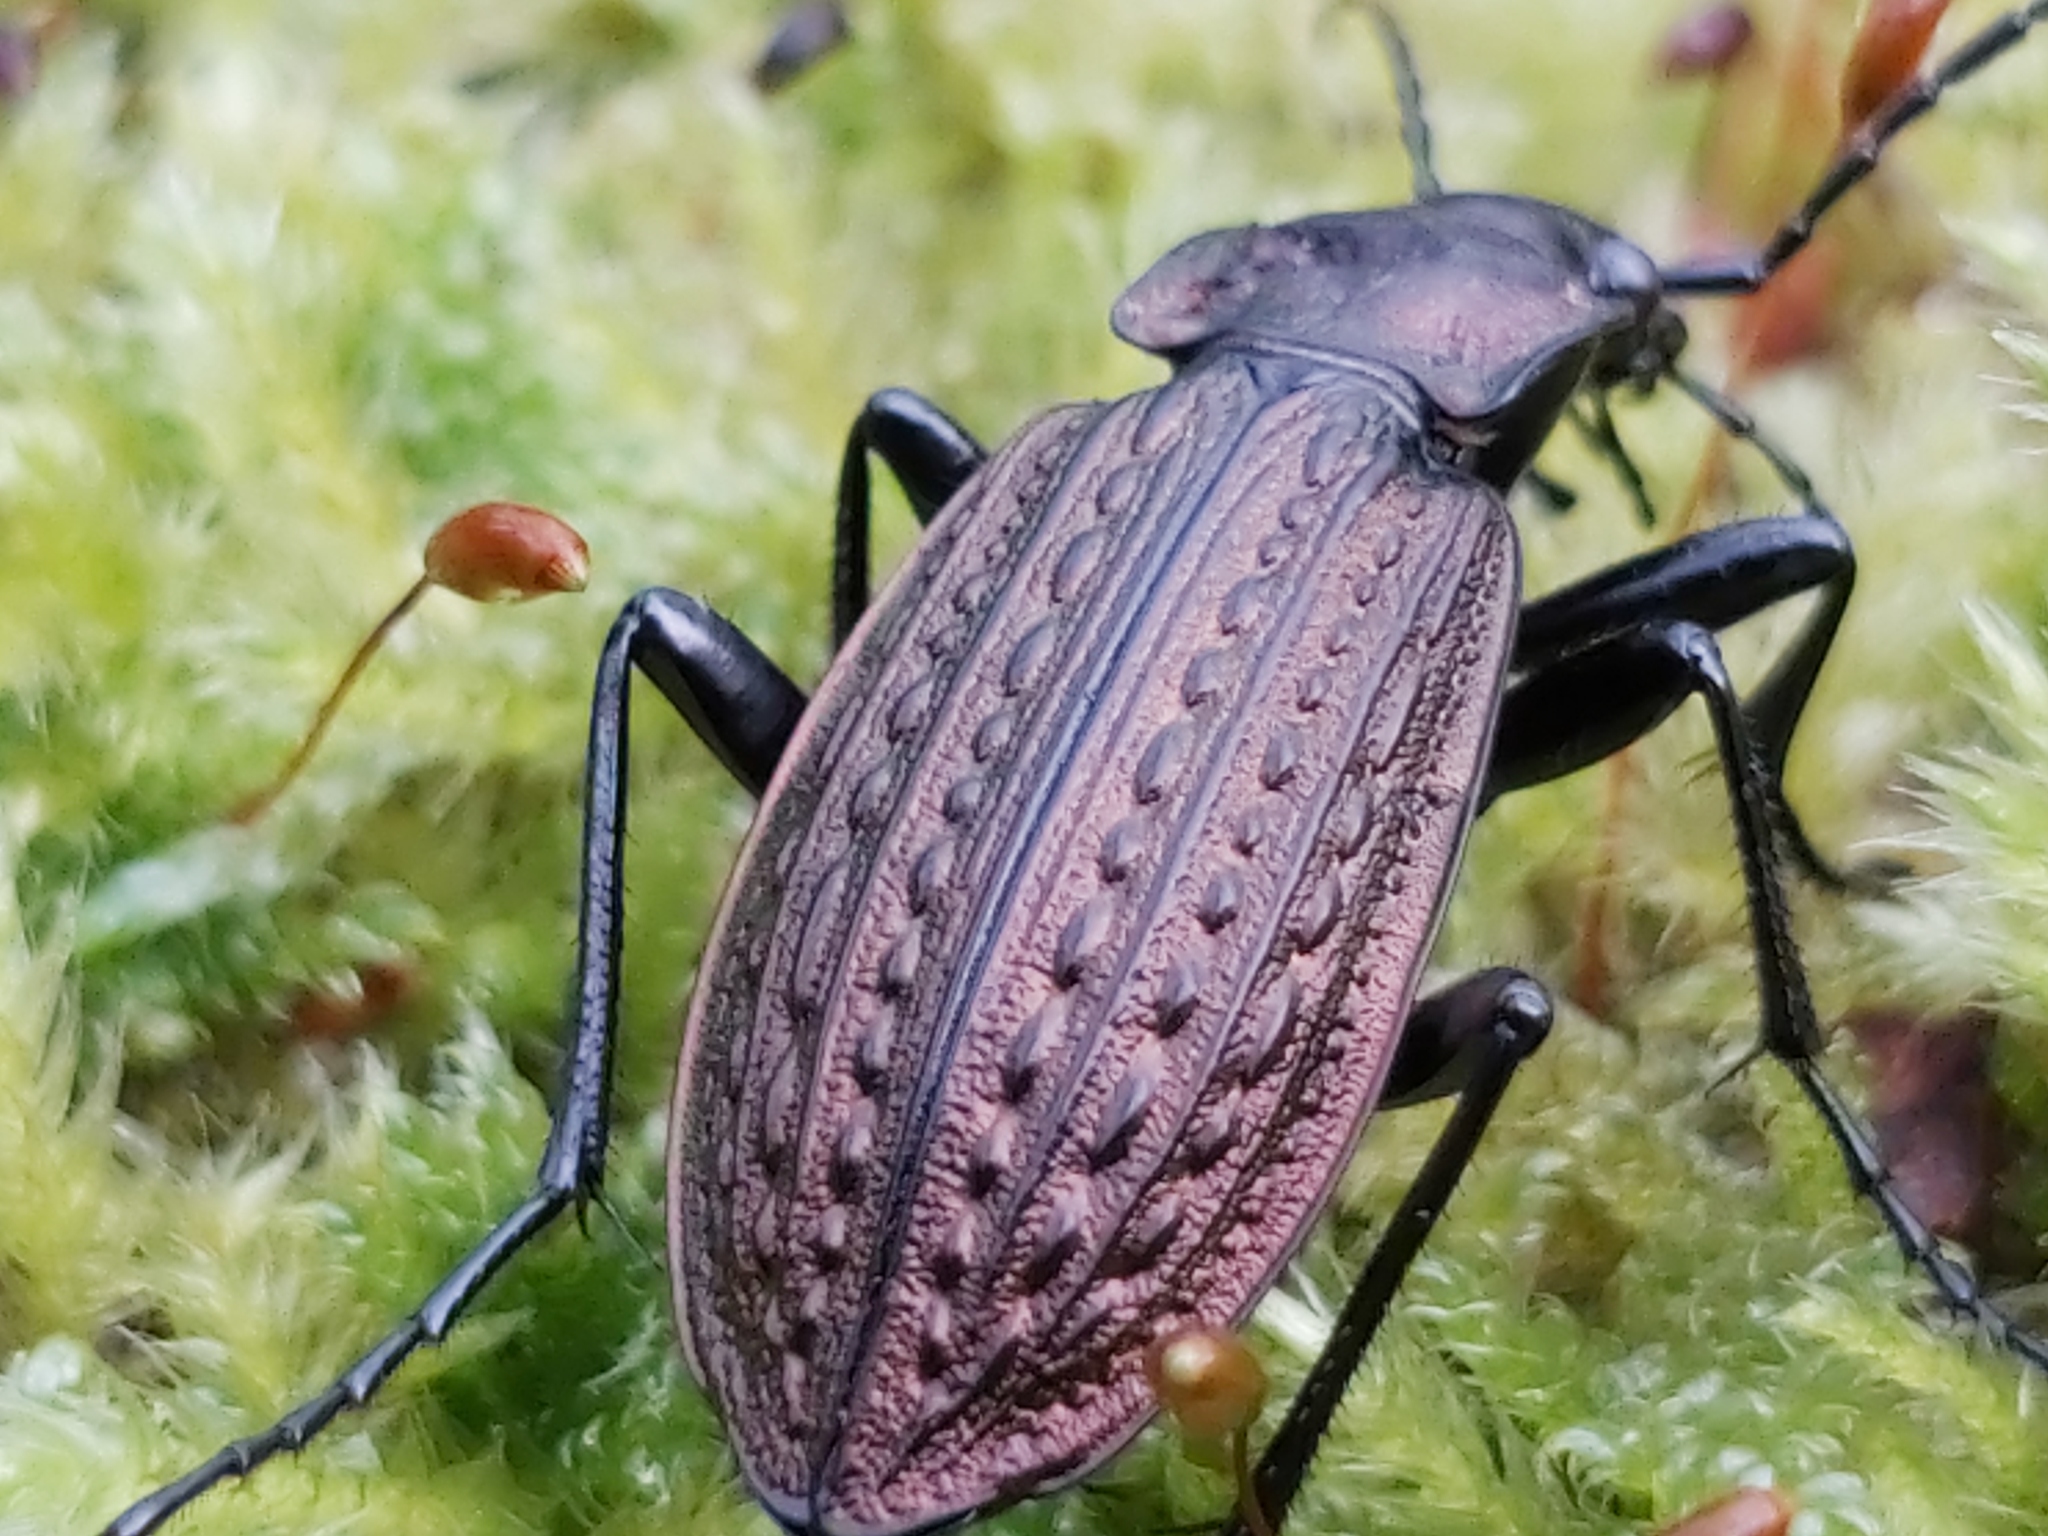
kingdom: Animalia
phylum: Arthropoda
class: Insecta
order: Coleoptera
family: Carabidae
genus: Carabus
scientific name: Carabus granulatus
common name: Granulate ground beetle
